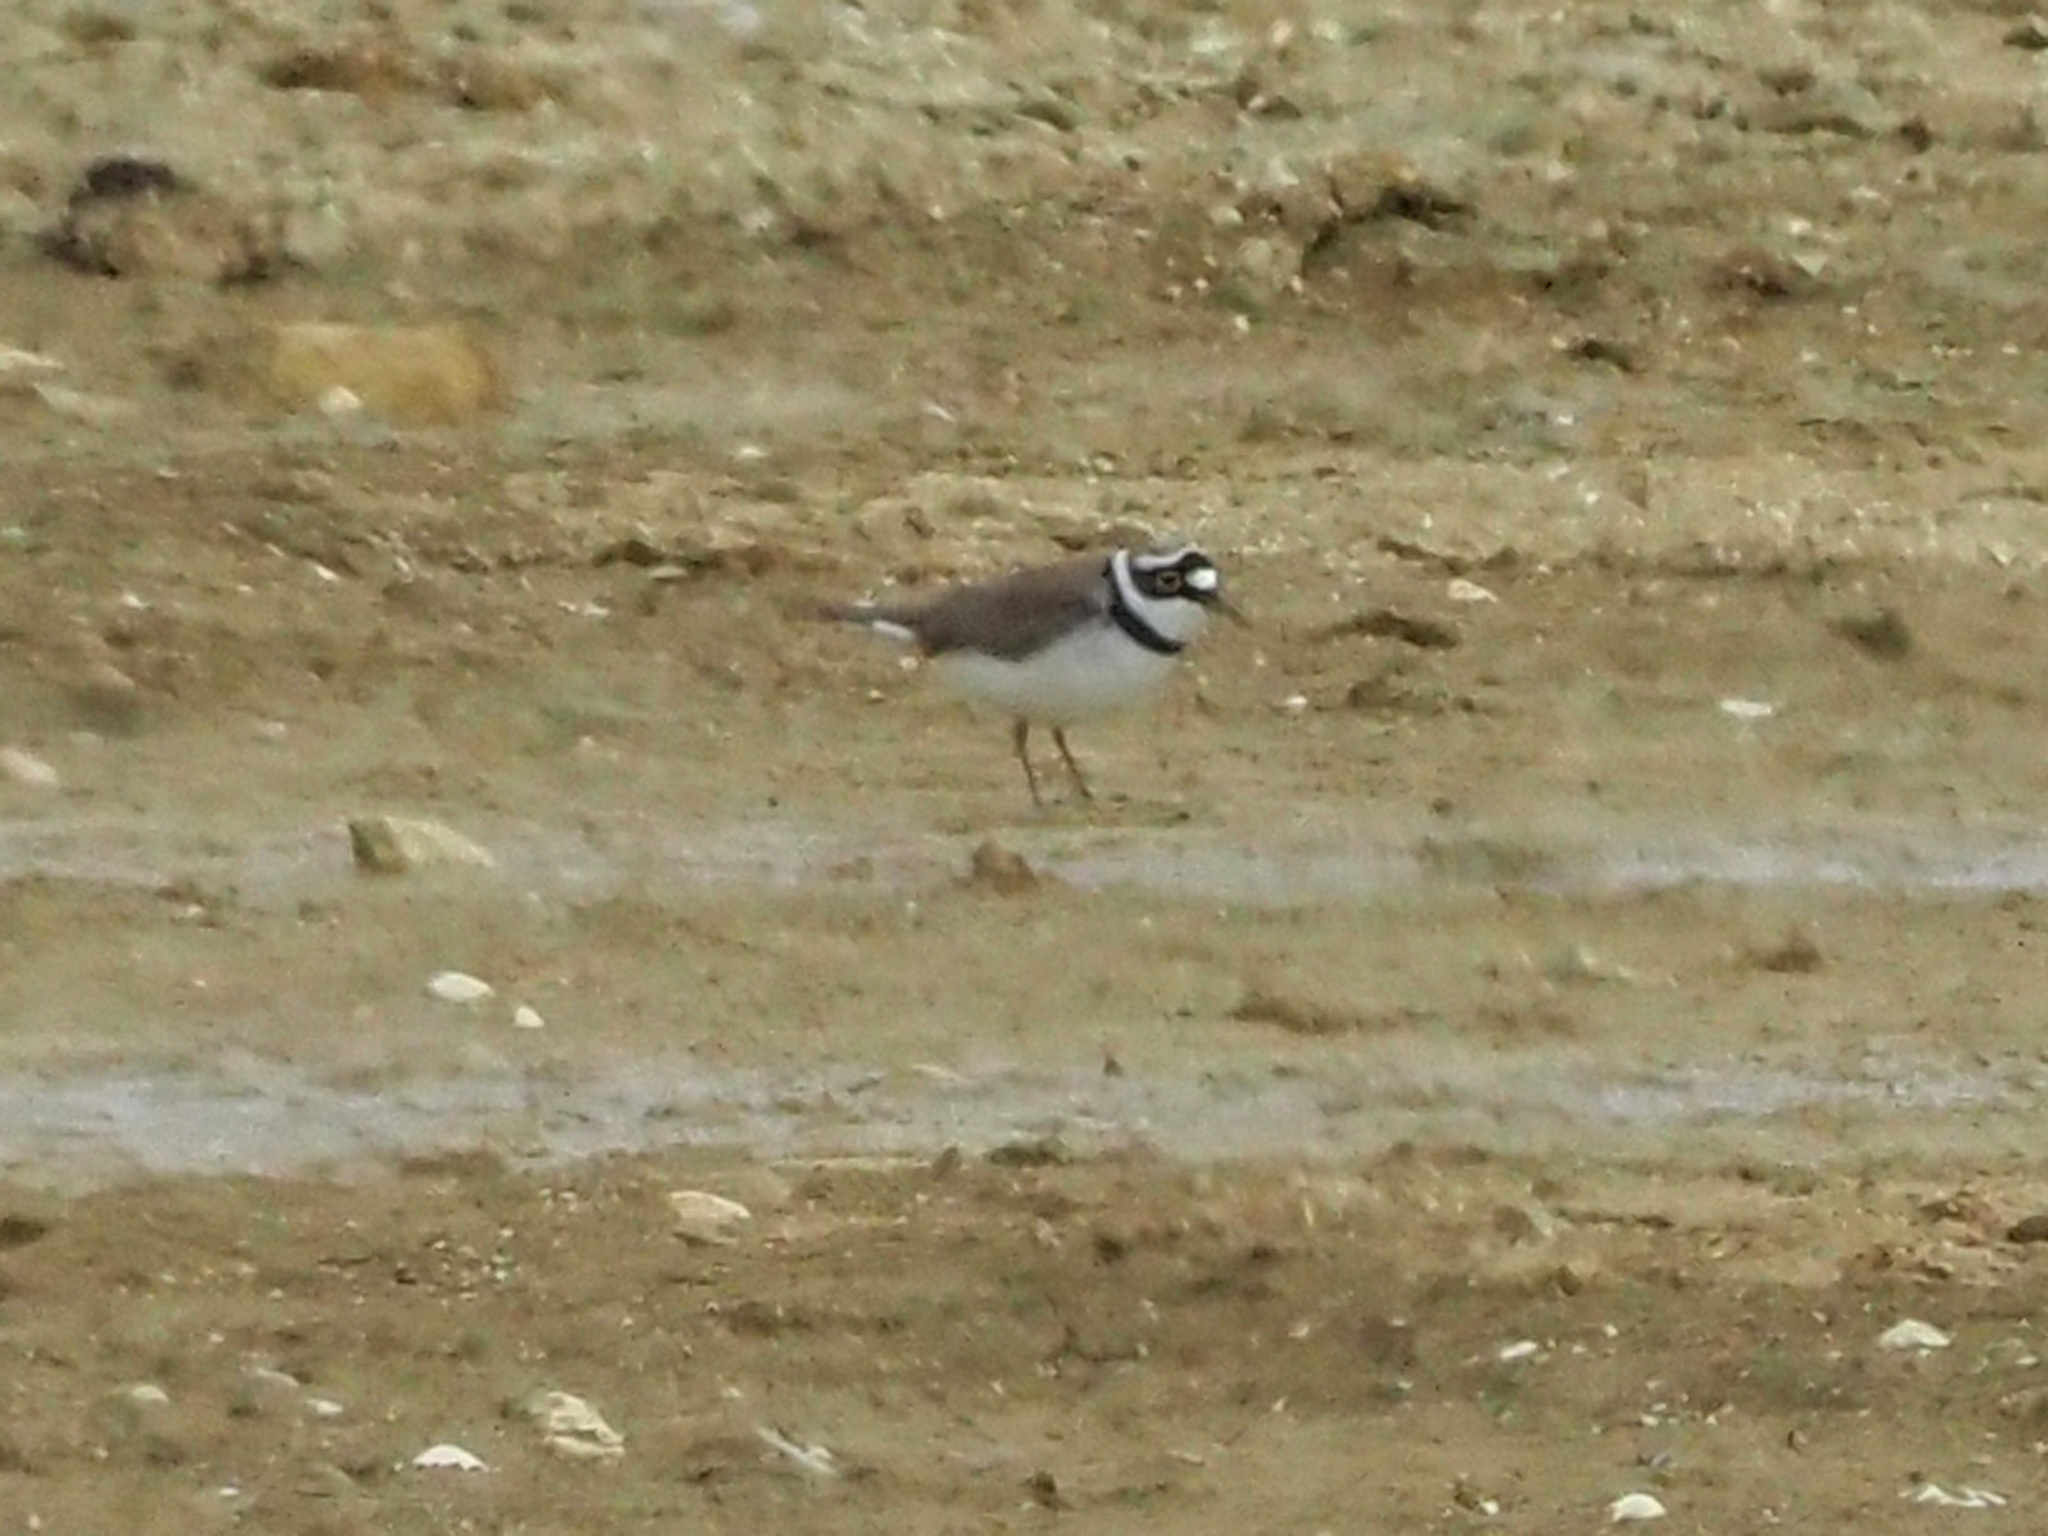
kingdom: Animalia
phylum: Chordata
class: Aves
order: Charadriiformes
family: Charadriidae
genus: Charadrius
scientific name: Charadrius dubius
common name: Little ringed plover
